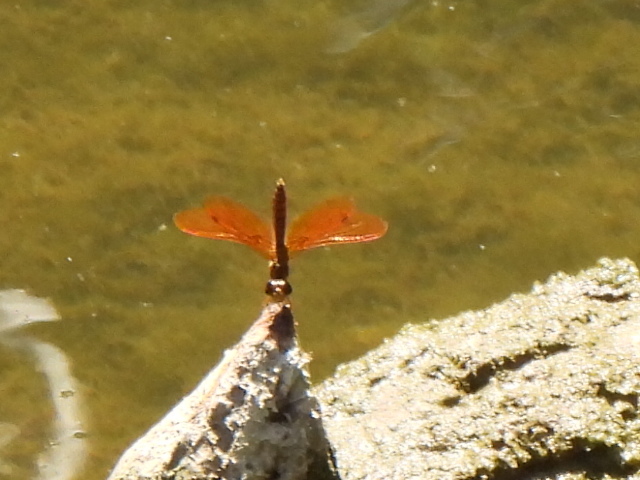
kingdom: Animalia
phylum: Arthropoda
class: Insecta
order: Odonata
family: Libellulidae
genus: Perithemis
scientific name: Perithemis tenera
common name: Eastern amberwing
